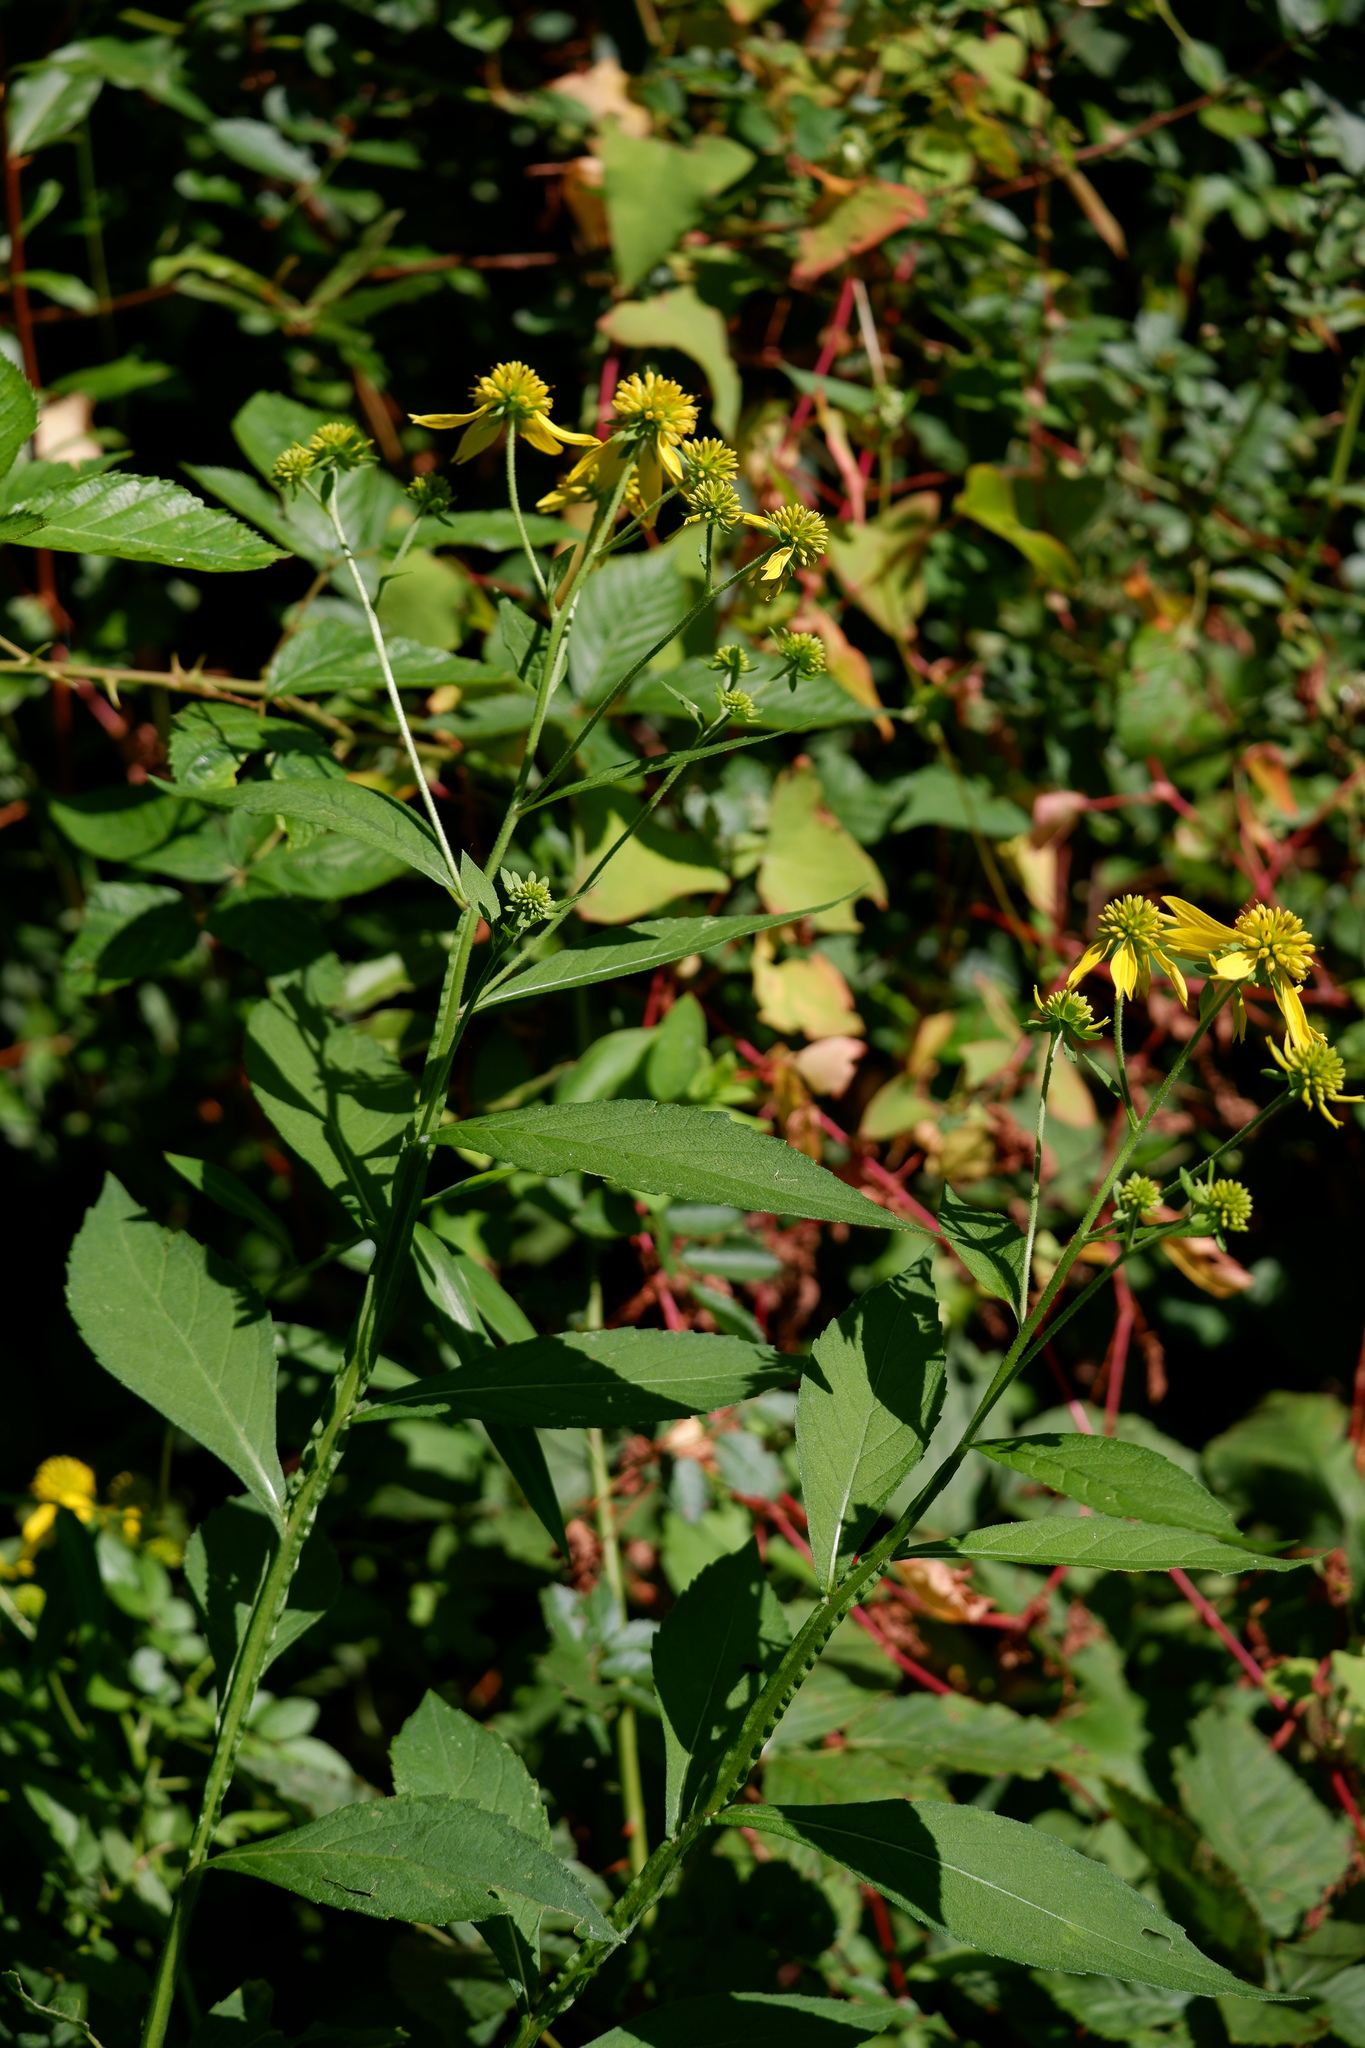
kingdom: Plantae
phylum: Tracheophyta
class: Magnoliopsida
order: Asterales
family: Asteraceae
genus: Verbesina
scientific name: Verbesina alternifolia
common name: Wingstem
